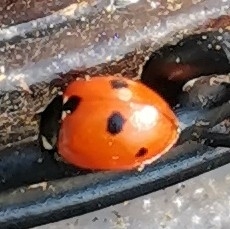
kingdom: Animalia
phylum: Arthropoda
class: Insecta
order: Coleoptera
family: Coccinellidae
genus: Coccinella
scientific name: Coccinella quinquepunctata
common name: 5-spot ladybird
